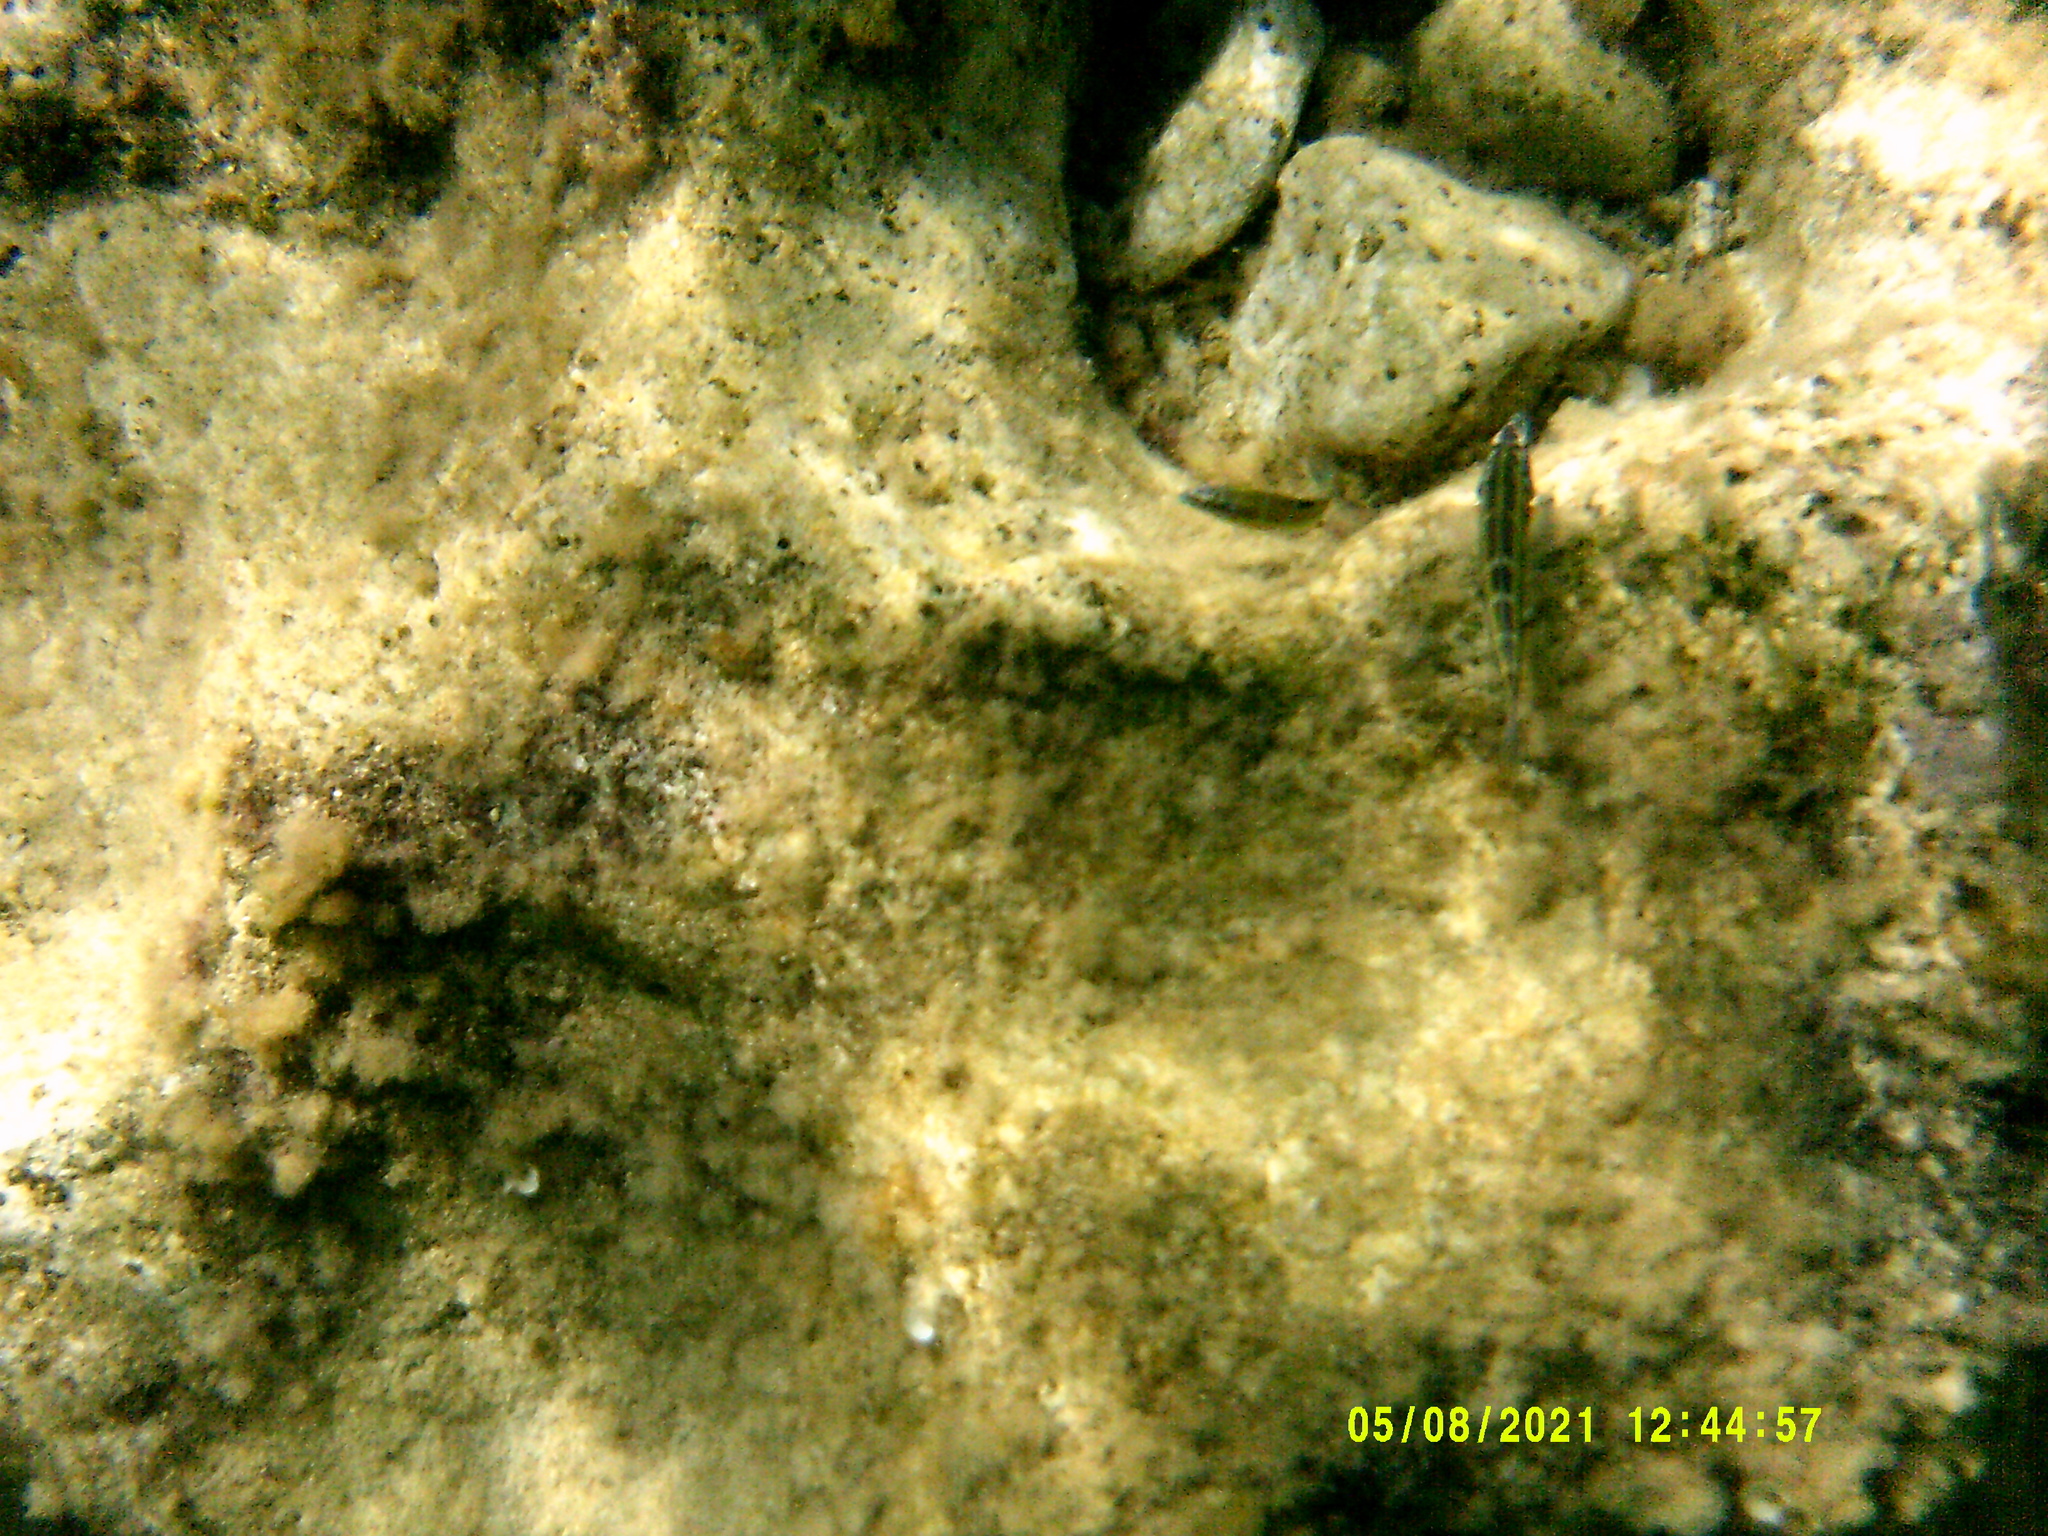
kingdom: Animalia
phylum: Chordata
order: Perciformes
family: Labridae
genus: Thalassoma
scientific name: Thalassoma pavo
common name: Ornate wrasse
